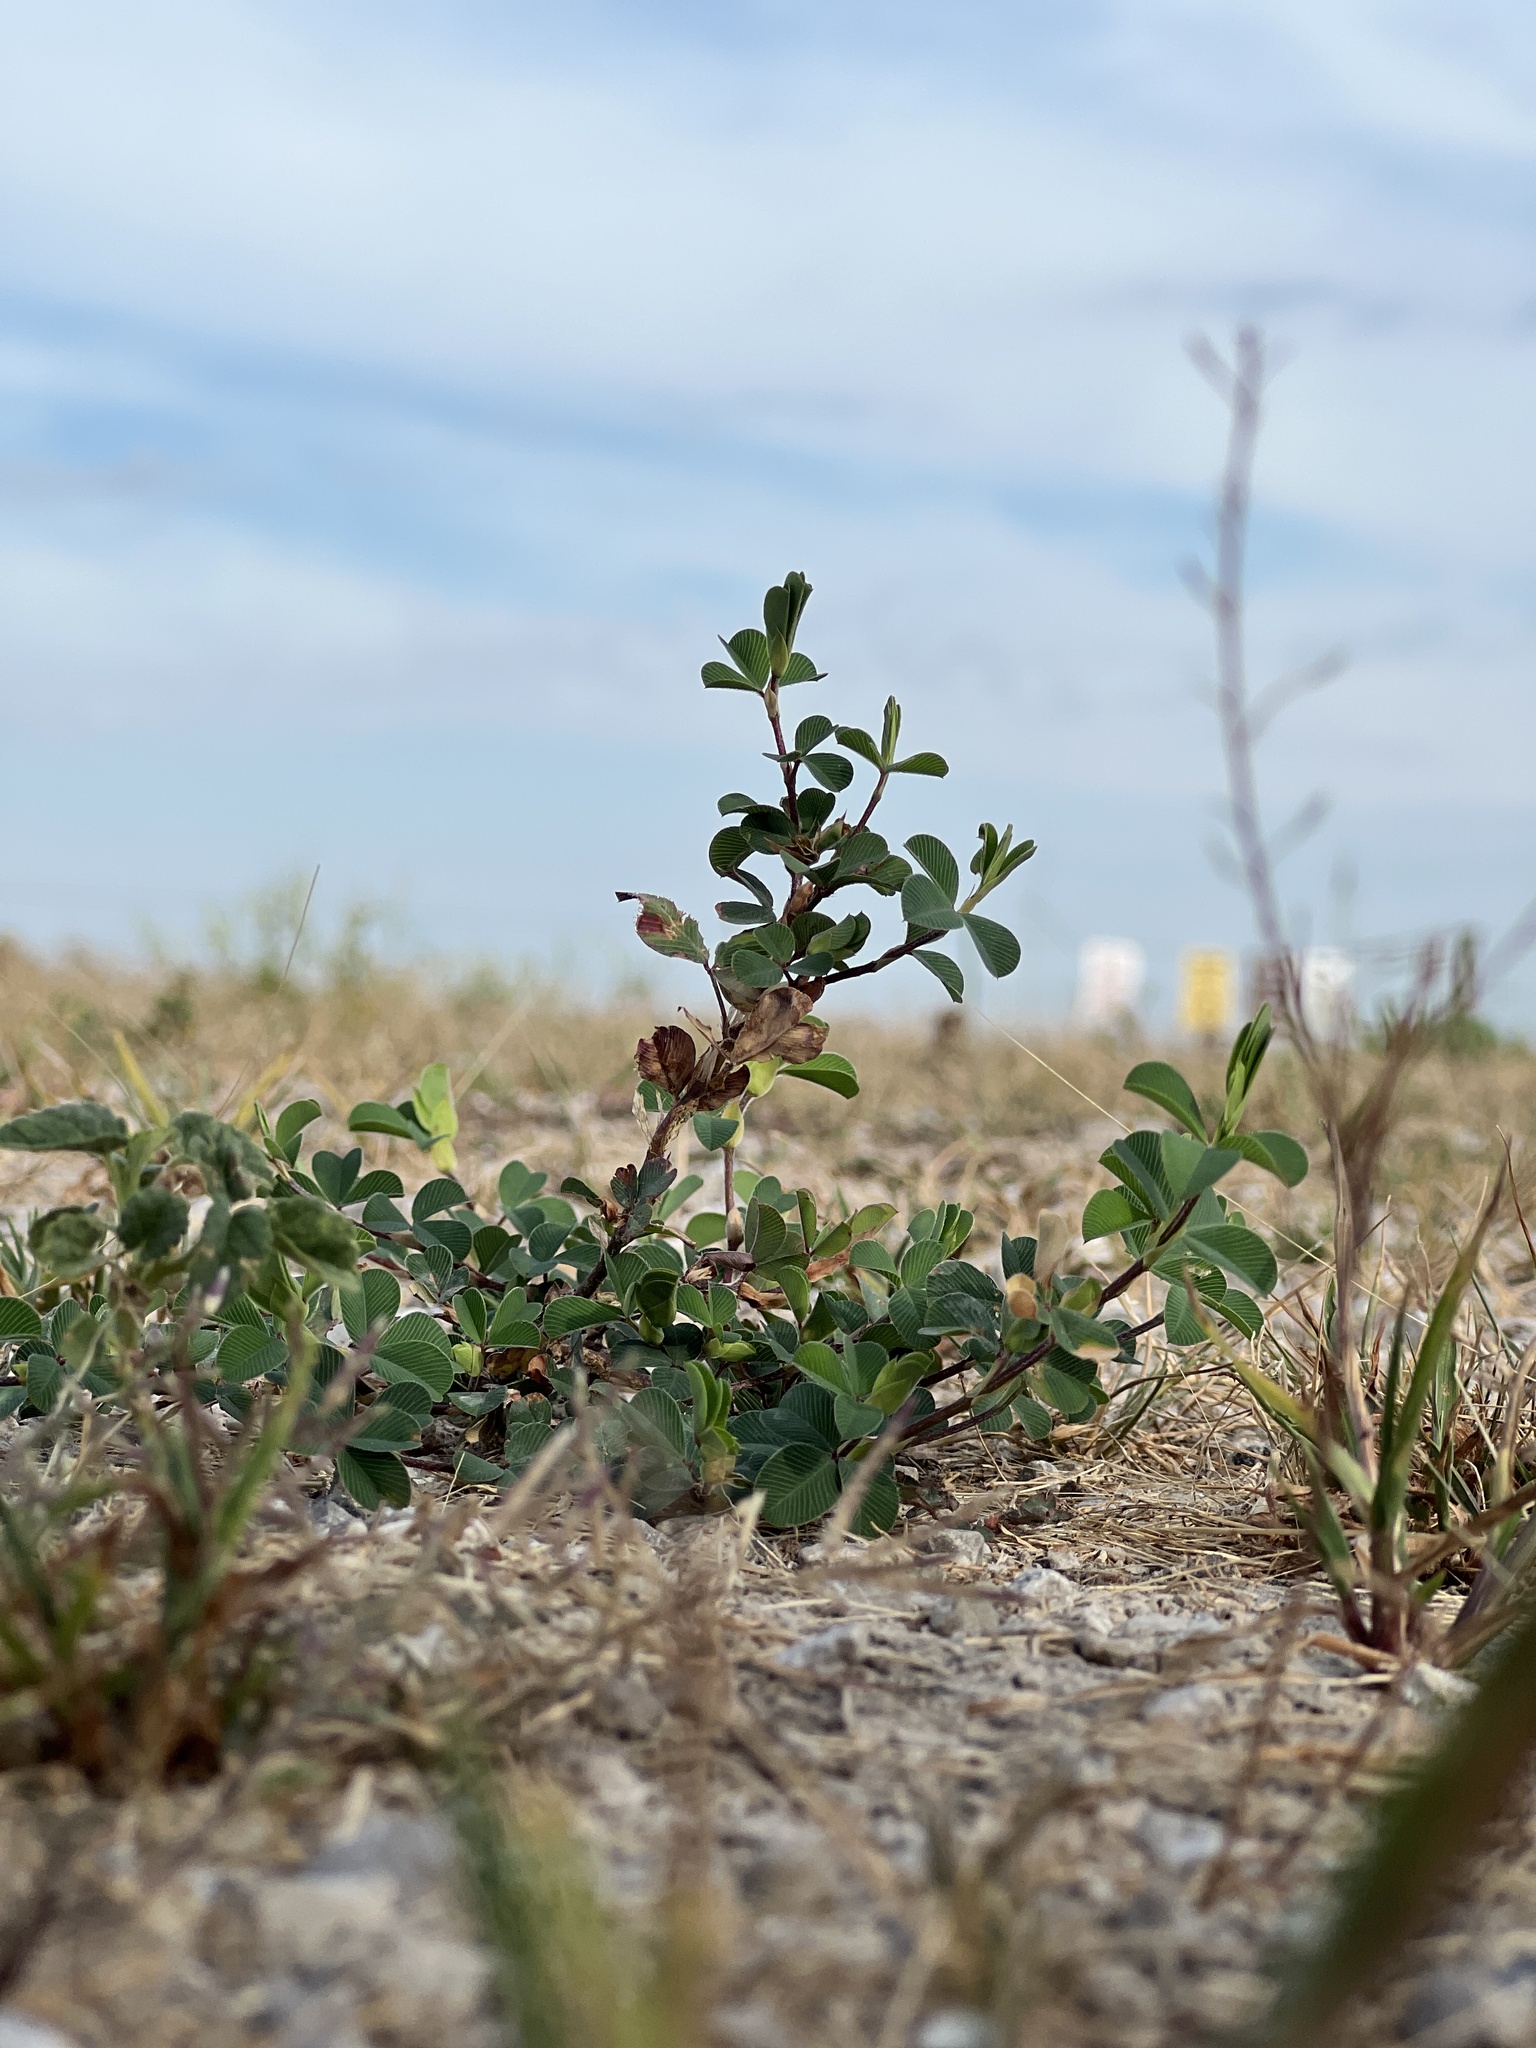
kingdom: Plantae
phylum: Tracheophyta
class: Magnoliopsida
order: Fabales
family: Fabaceae
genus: Kummerowia
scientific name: Kummerowia stipulacea
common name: Korean clover
